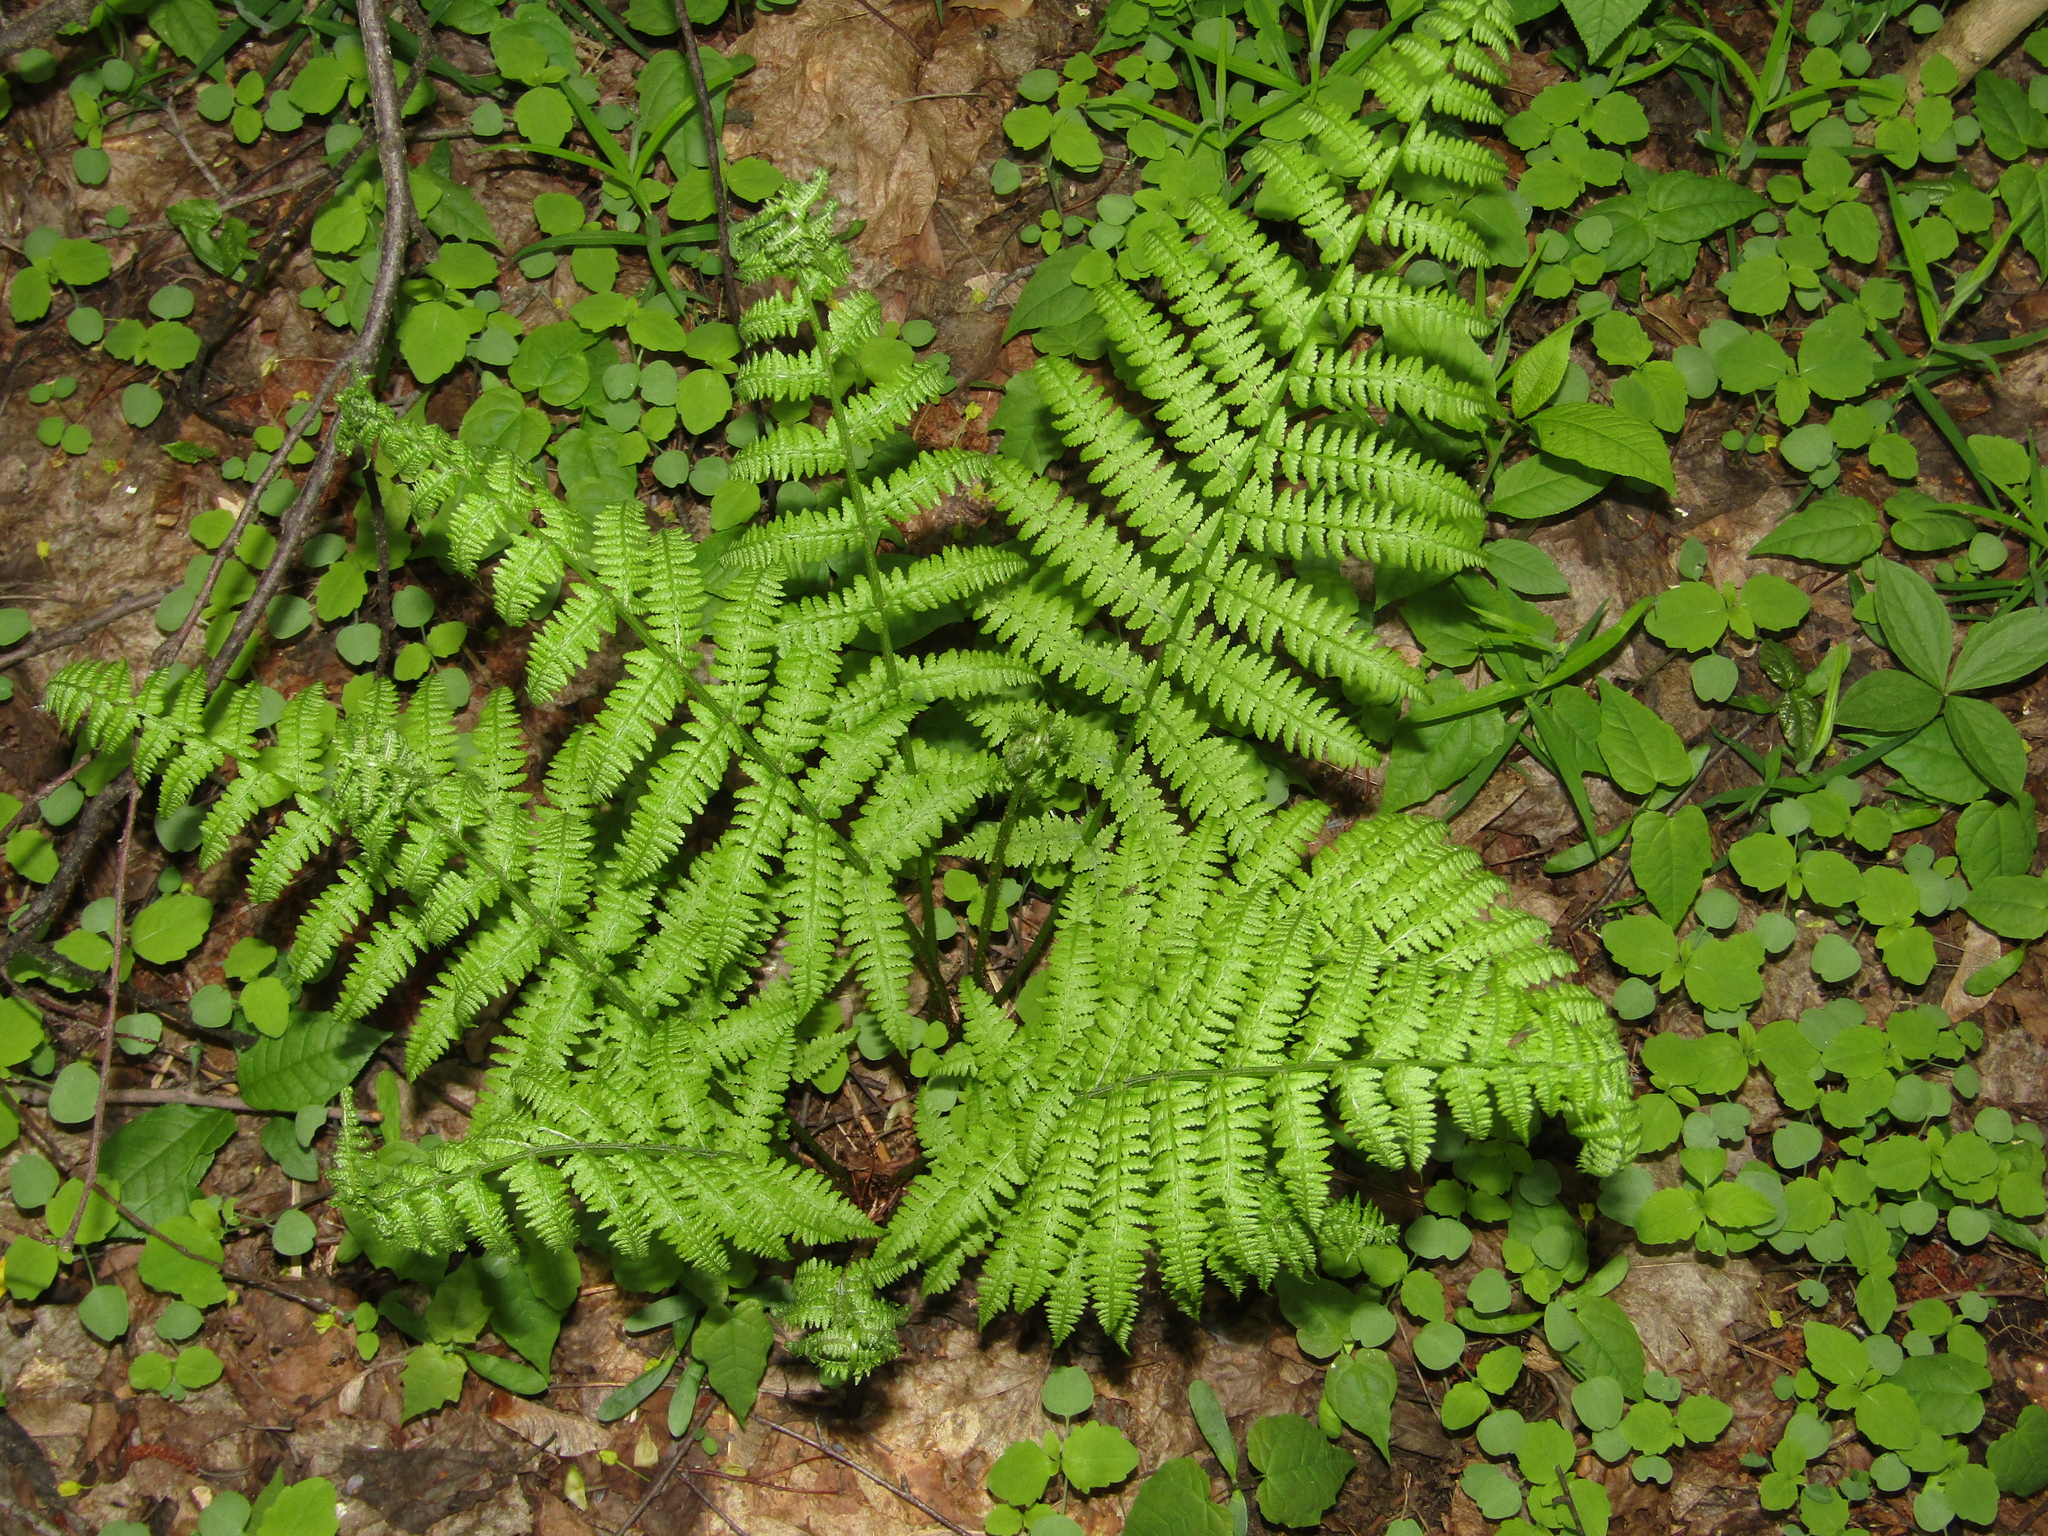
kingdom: Plantae
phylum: Tracheophyta
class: Polypodiopsida
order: Polypodiales
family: Athyriaceae
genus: Athyrium
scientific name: Athyrium filix-femina
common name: Lady fern
